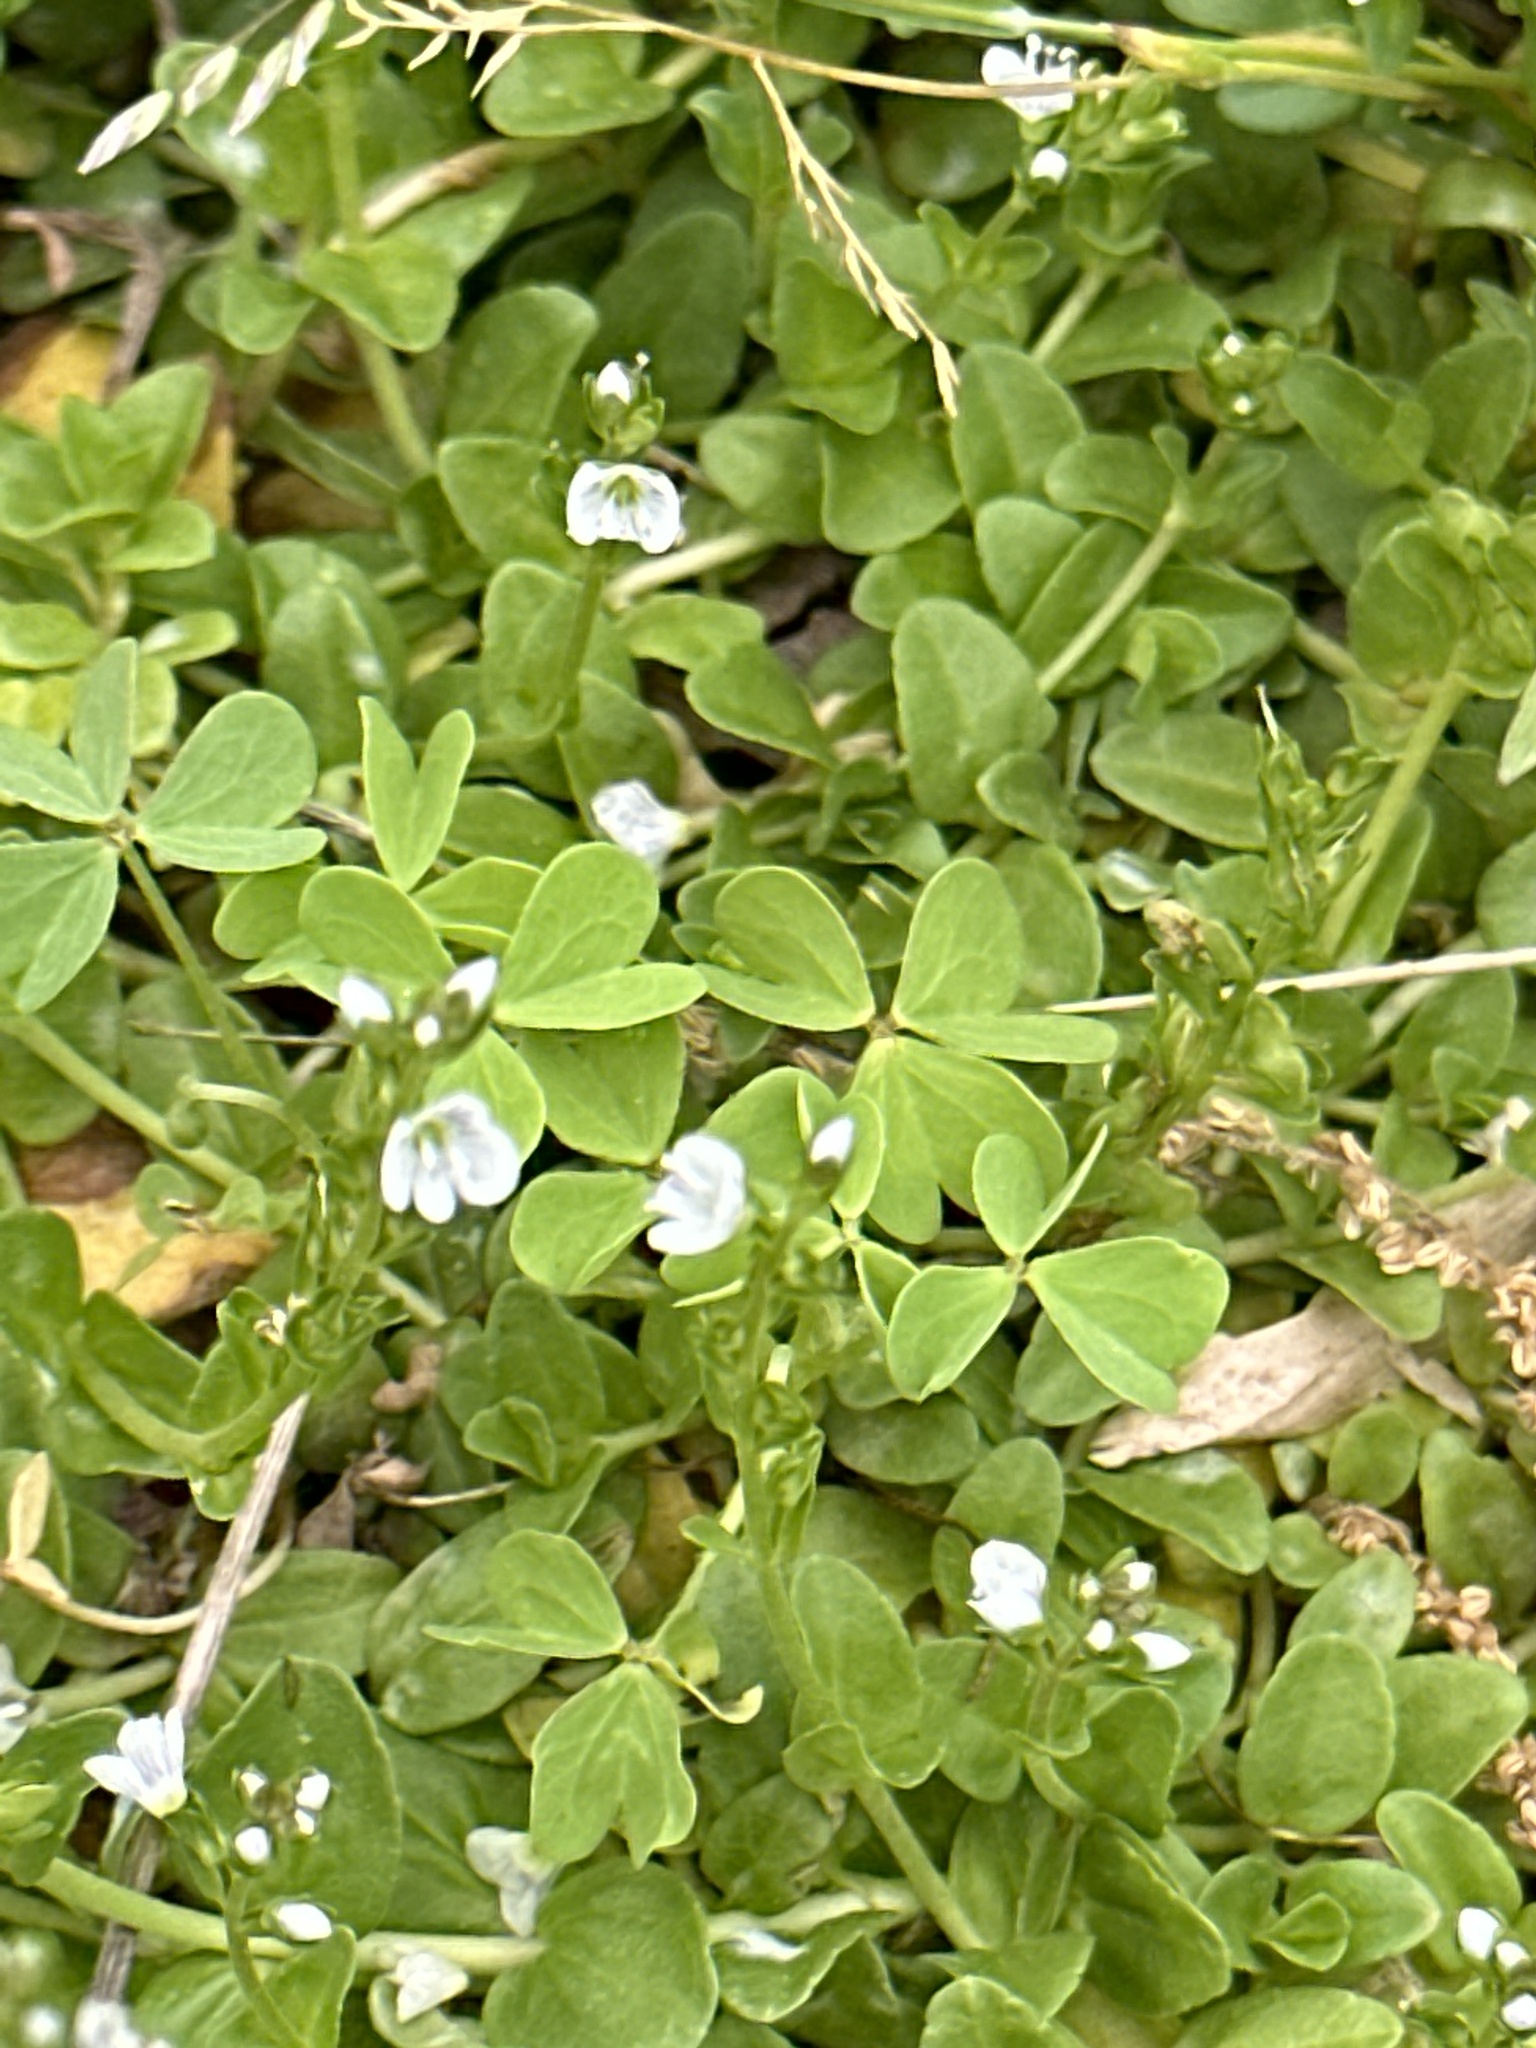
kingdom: Plantae
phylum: Tracheophyta
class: Magnoliopsida
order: Lamiales
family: Plantaginaceae
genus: Veronica
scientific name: Veronica serpyllifolia
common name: Thyme-leaved speedwell
